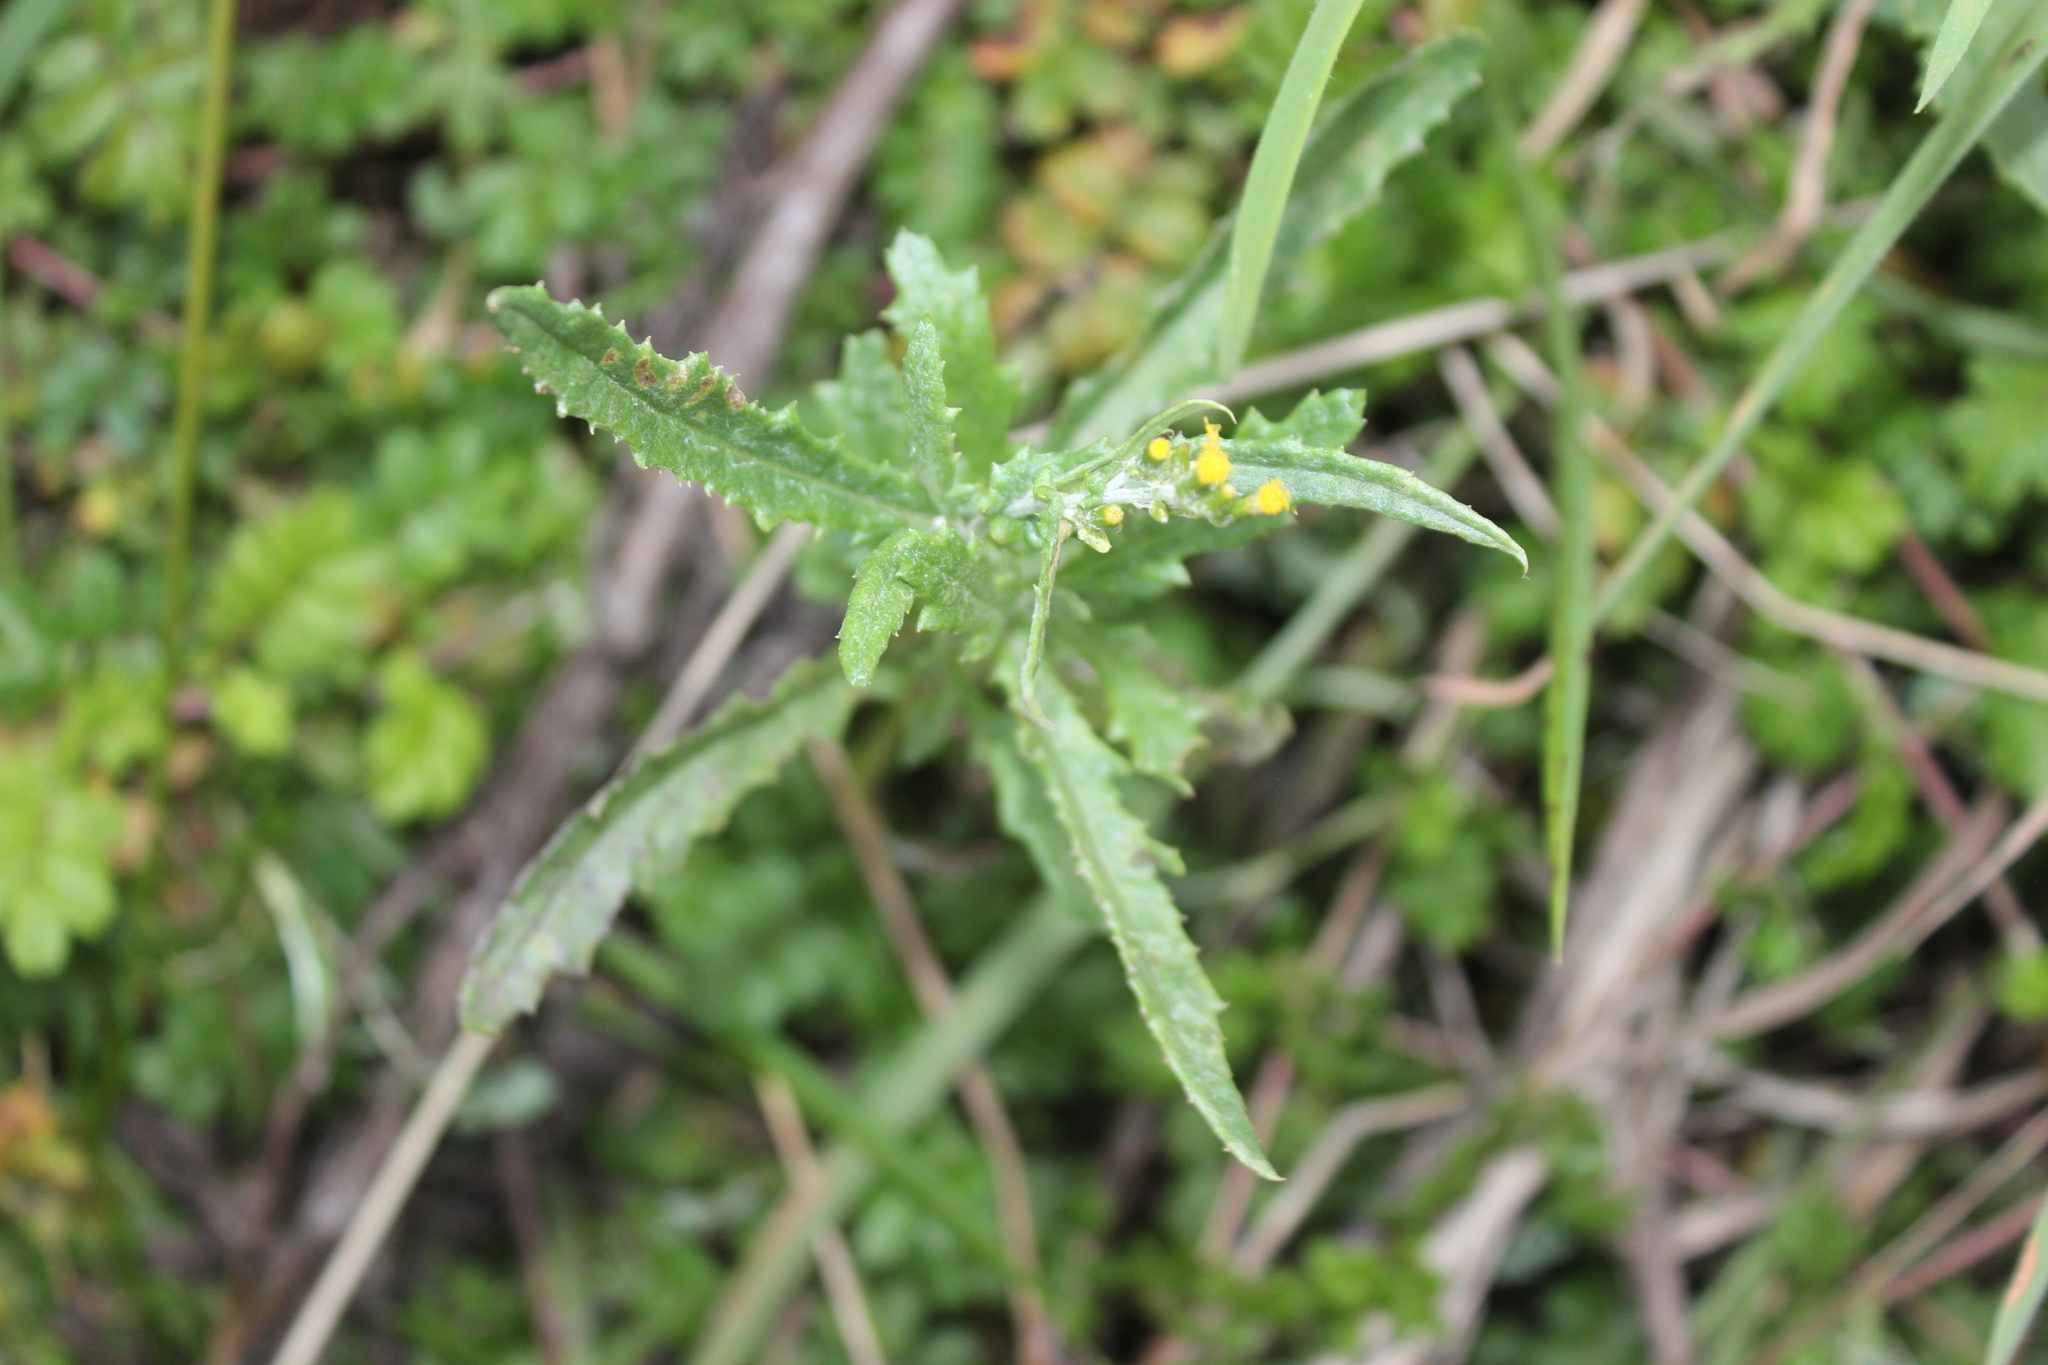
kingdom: Plantae
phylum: Tracheophyta
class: Magnoliopsida
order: Asterales
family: Asteraceae
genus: Senecio
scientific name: Senecio glomeratus
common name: Cutleaf burnweed
